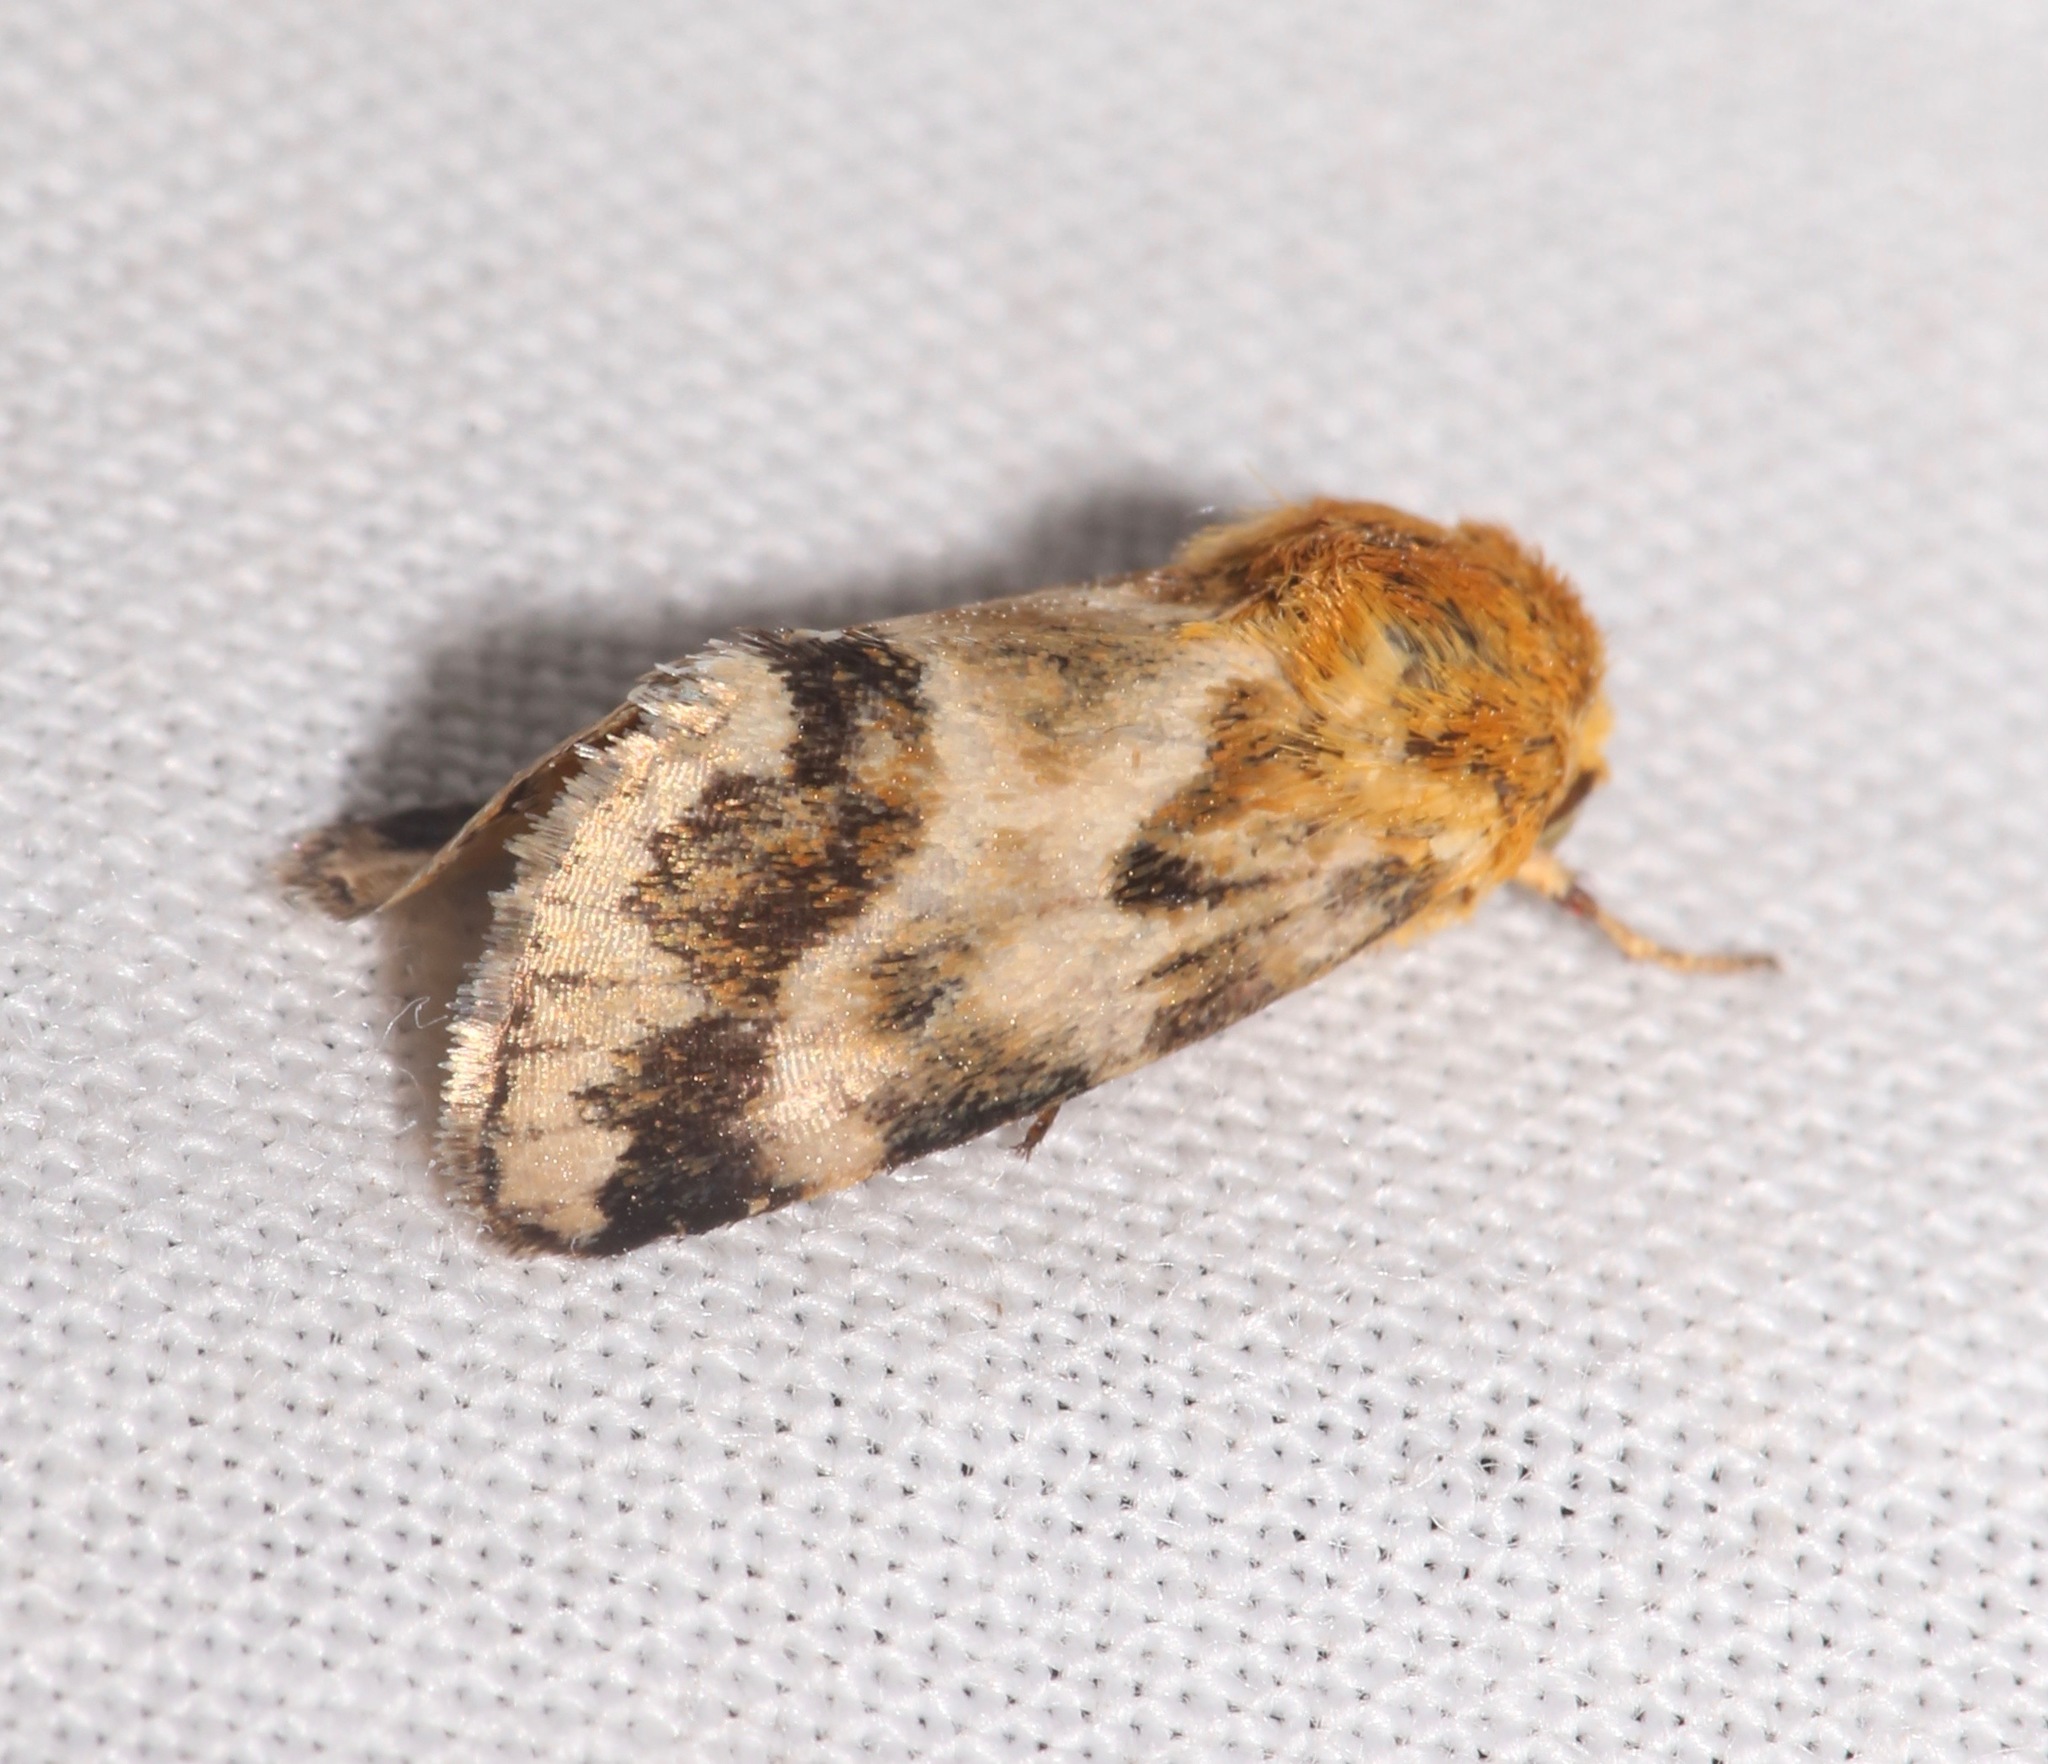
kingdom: Animalia
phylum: Arthropoda
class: Insecta
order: Lepidoptera
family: Noctuidae
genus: Schinia
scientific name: Schinia lynx
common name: Lynx flower moth
